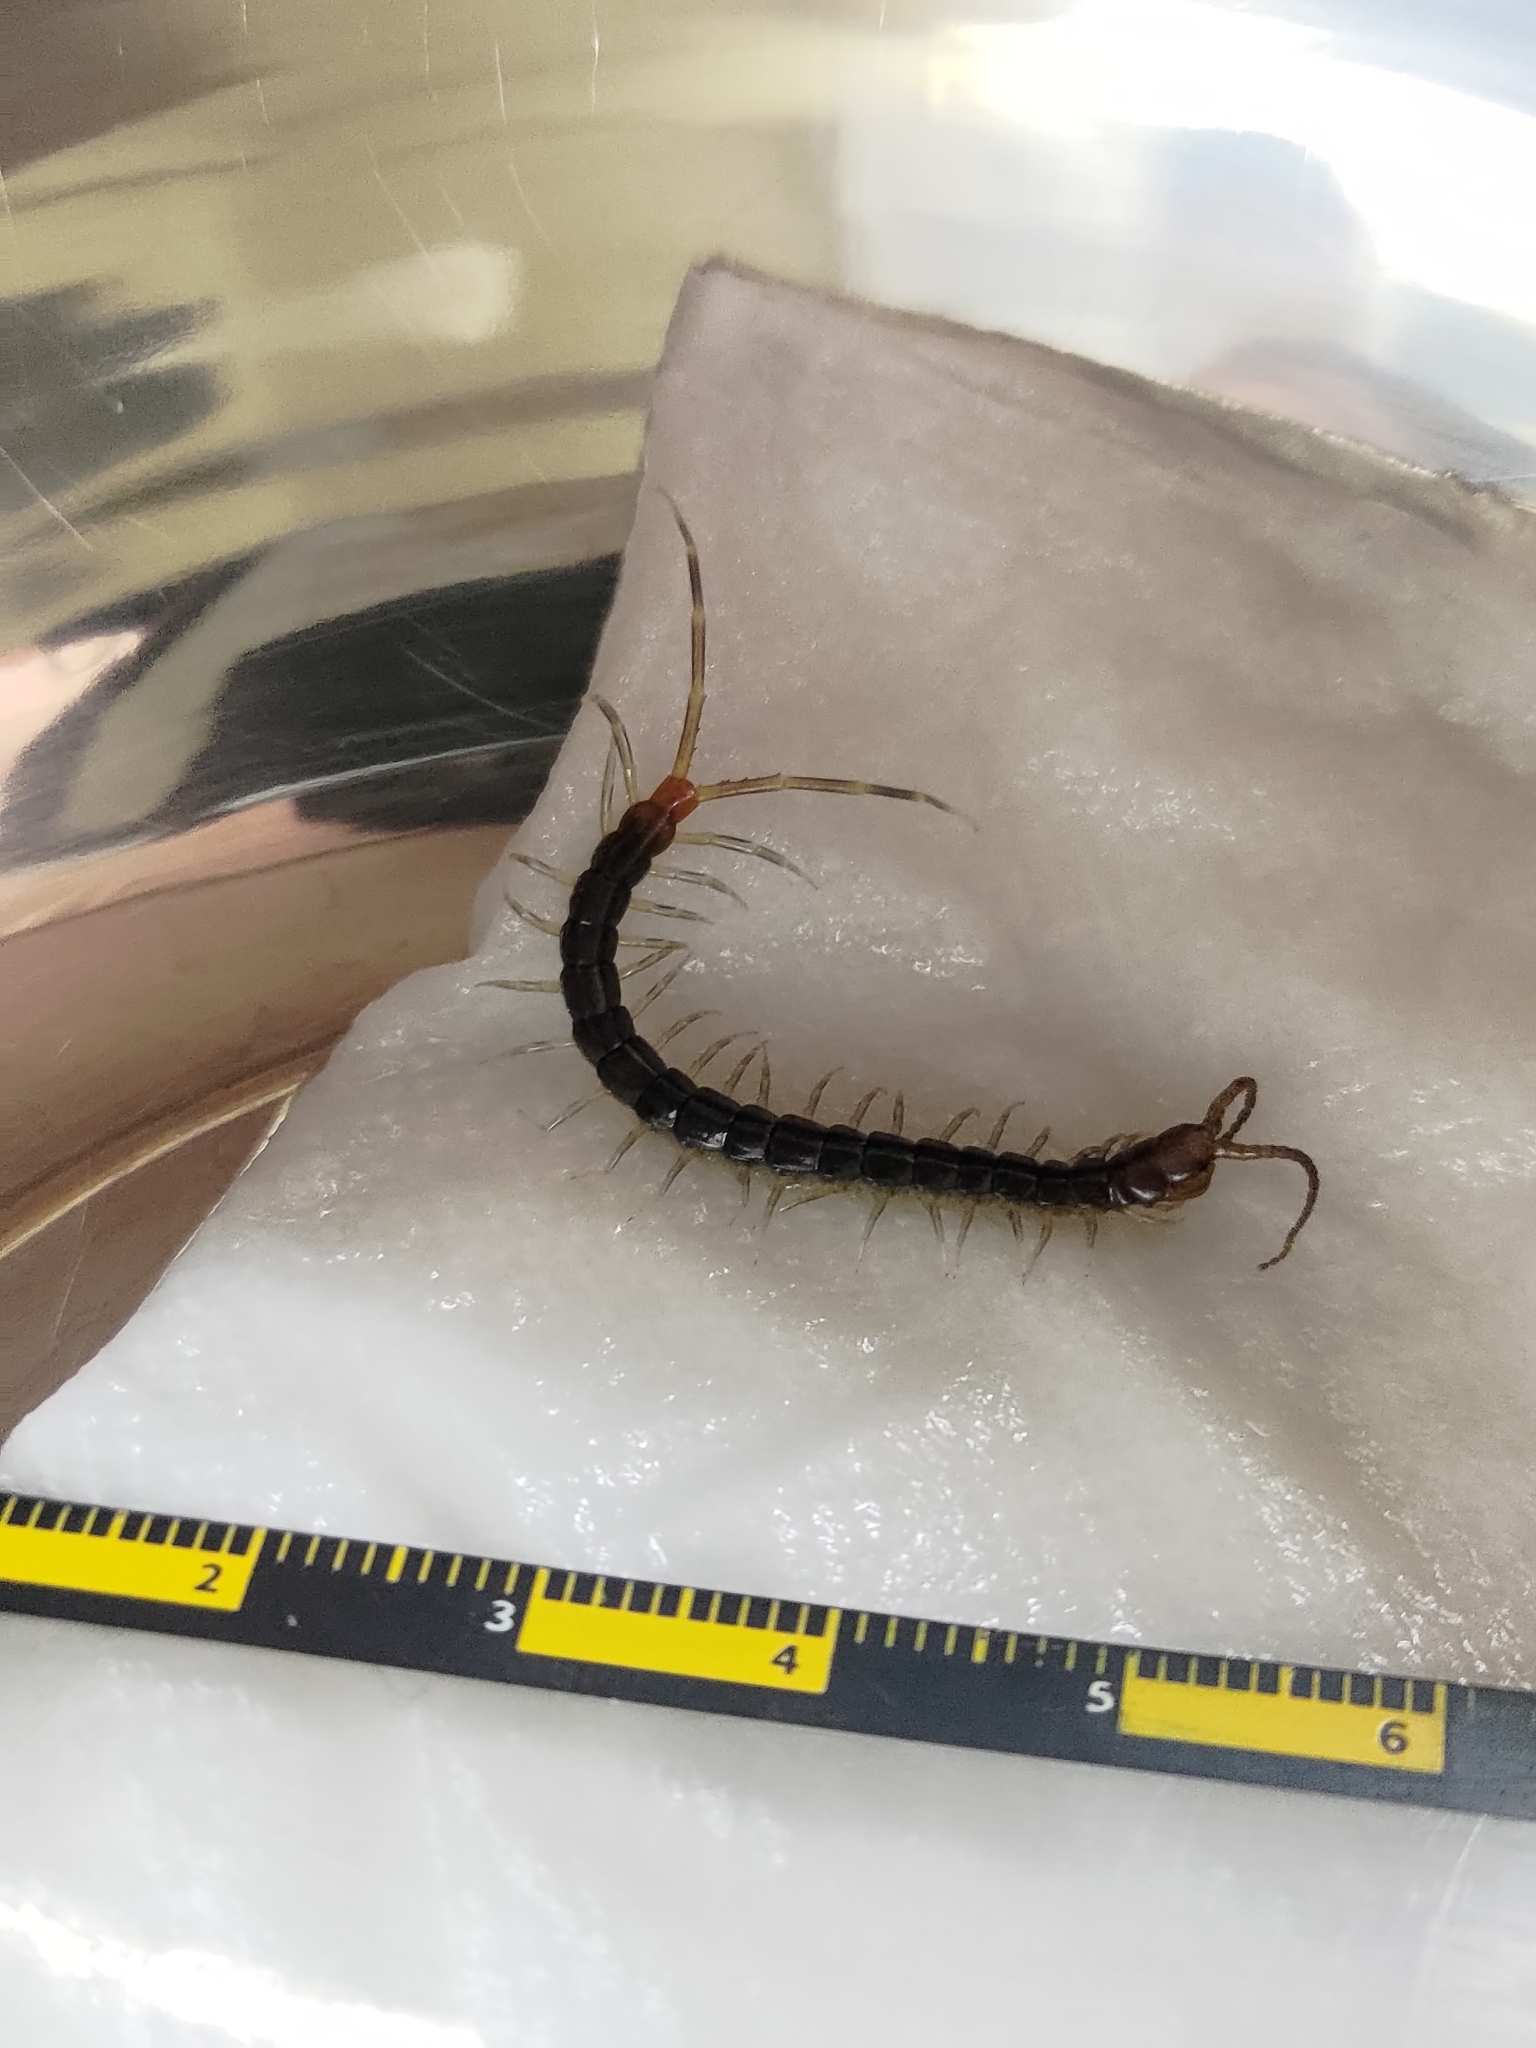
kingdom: Animalia
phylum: Arthropoda
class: Chilopoda
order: Scolopendromorpha
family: Scolopendridae
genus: Rhysida
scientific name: Rhysida longipes
